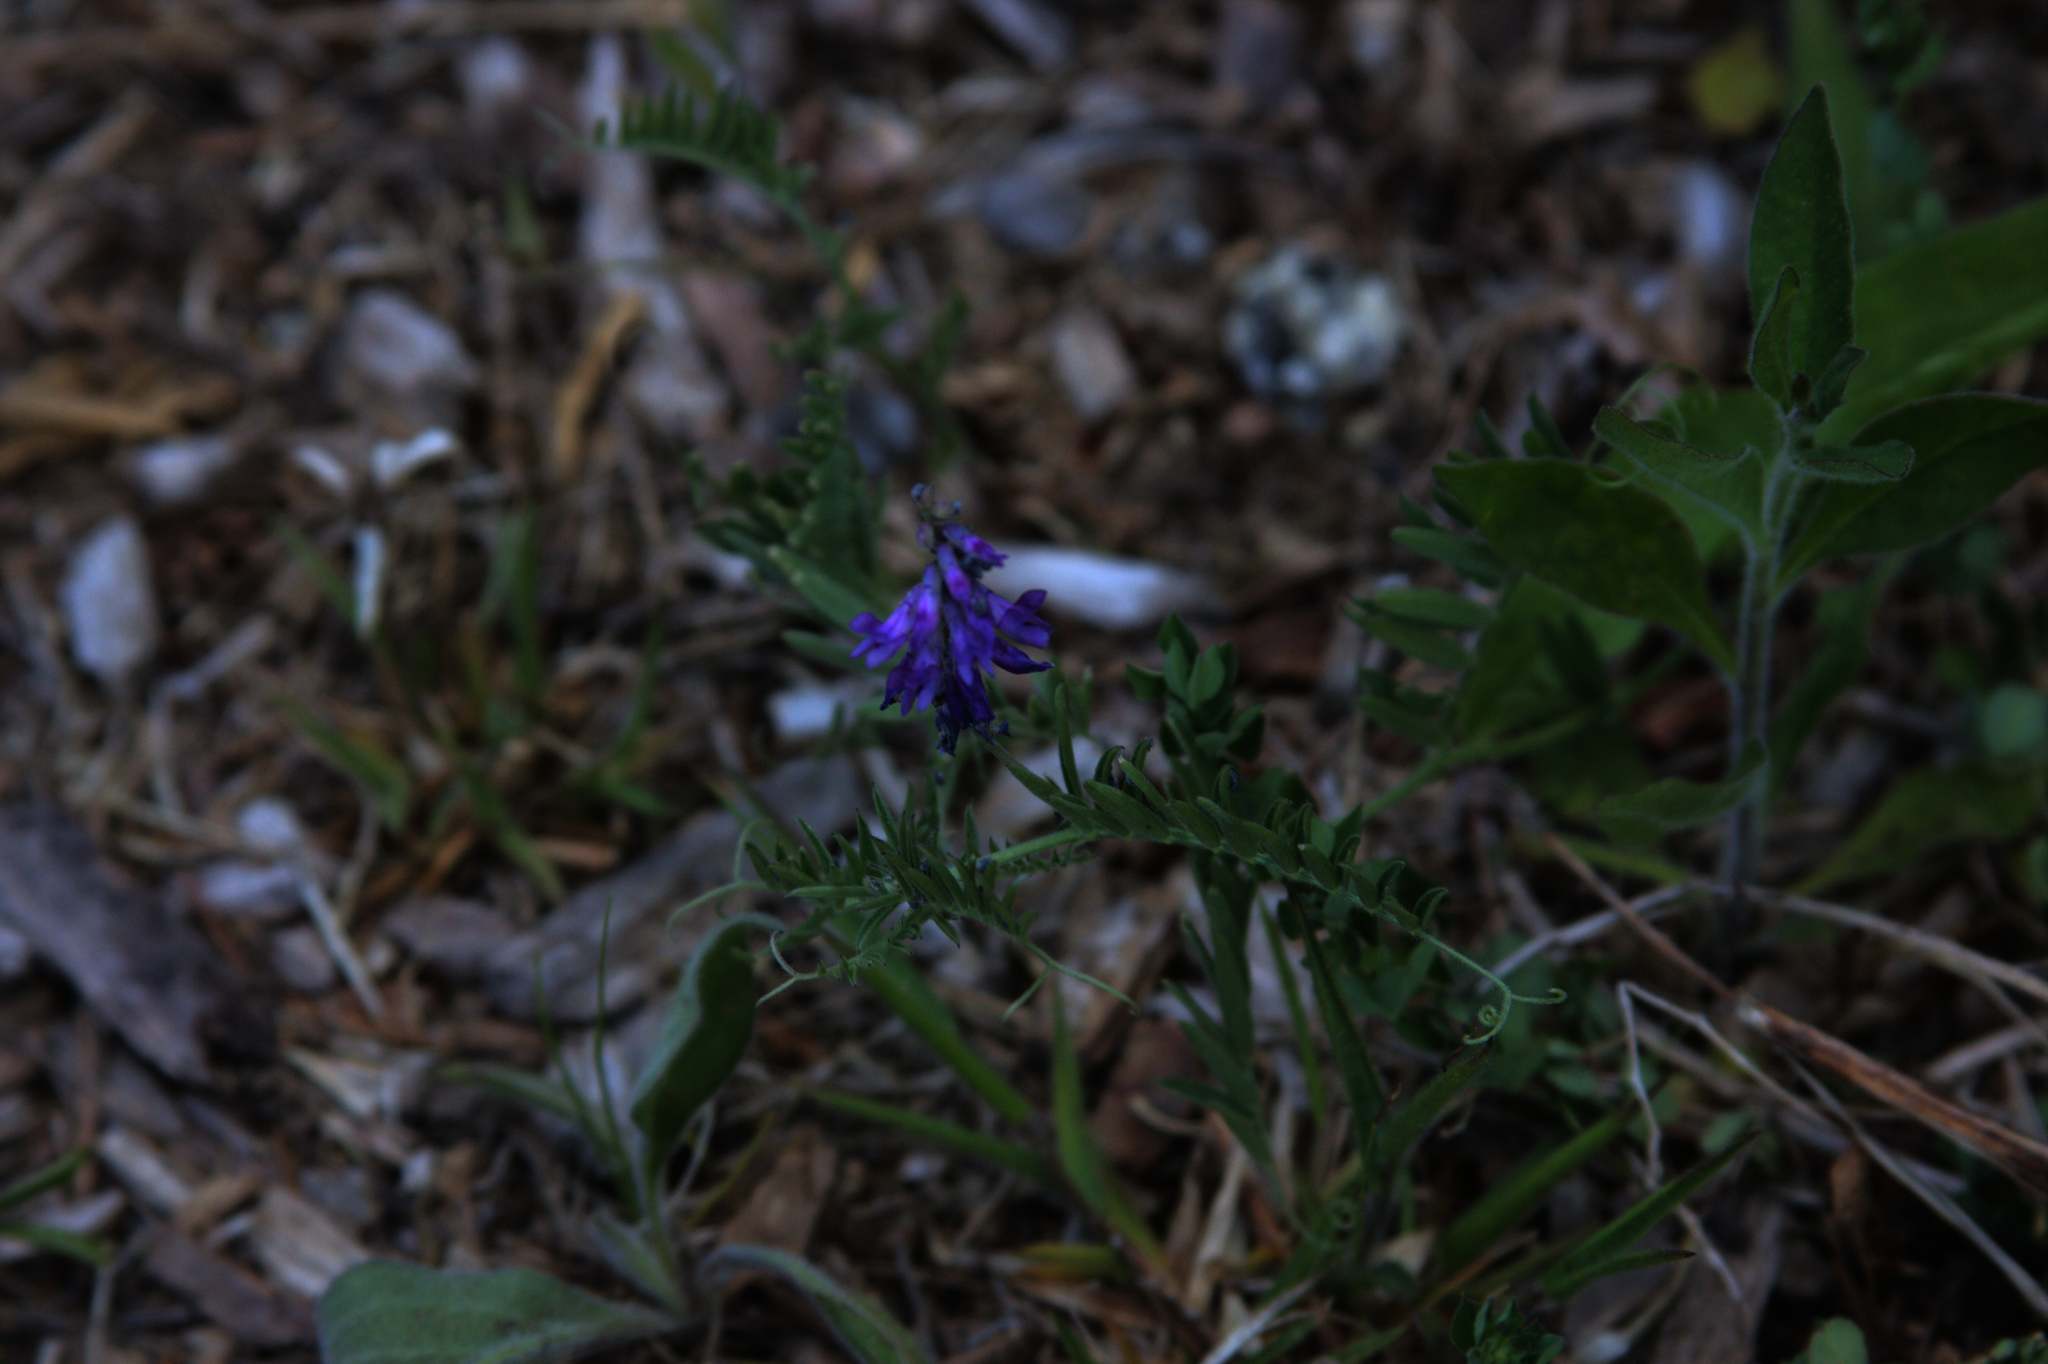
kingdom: Plantae
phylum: Tracheophyta
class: Magnoliopsida
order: Fabales
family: Fabaceae
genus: Vicia
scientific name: Vicia cracca
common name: Bird vetch
